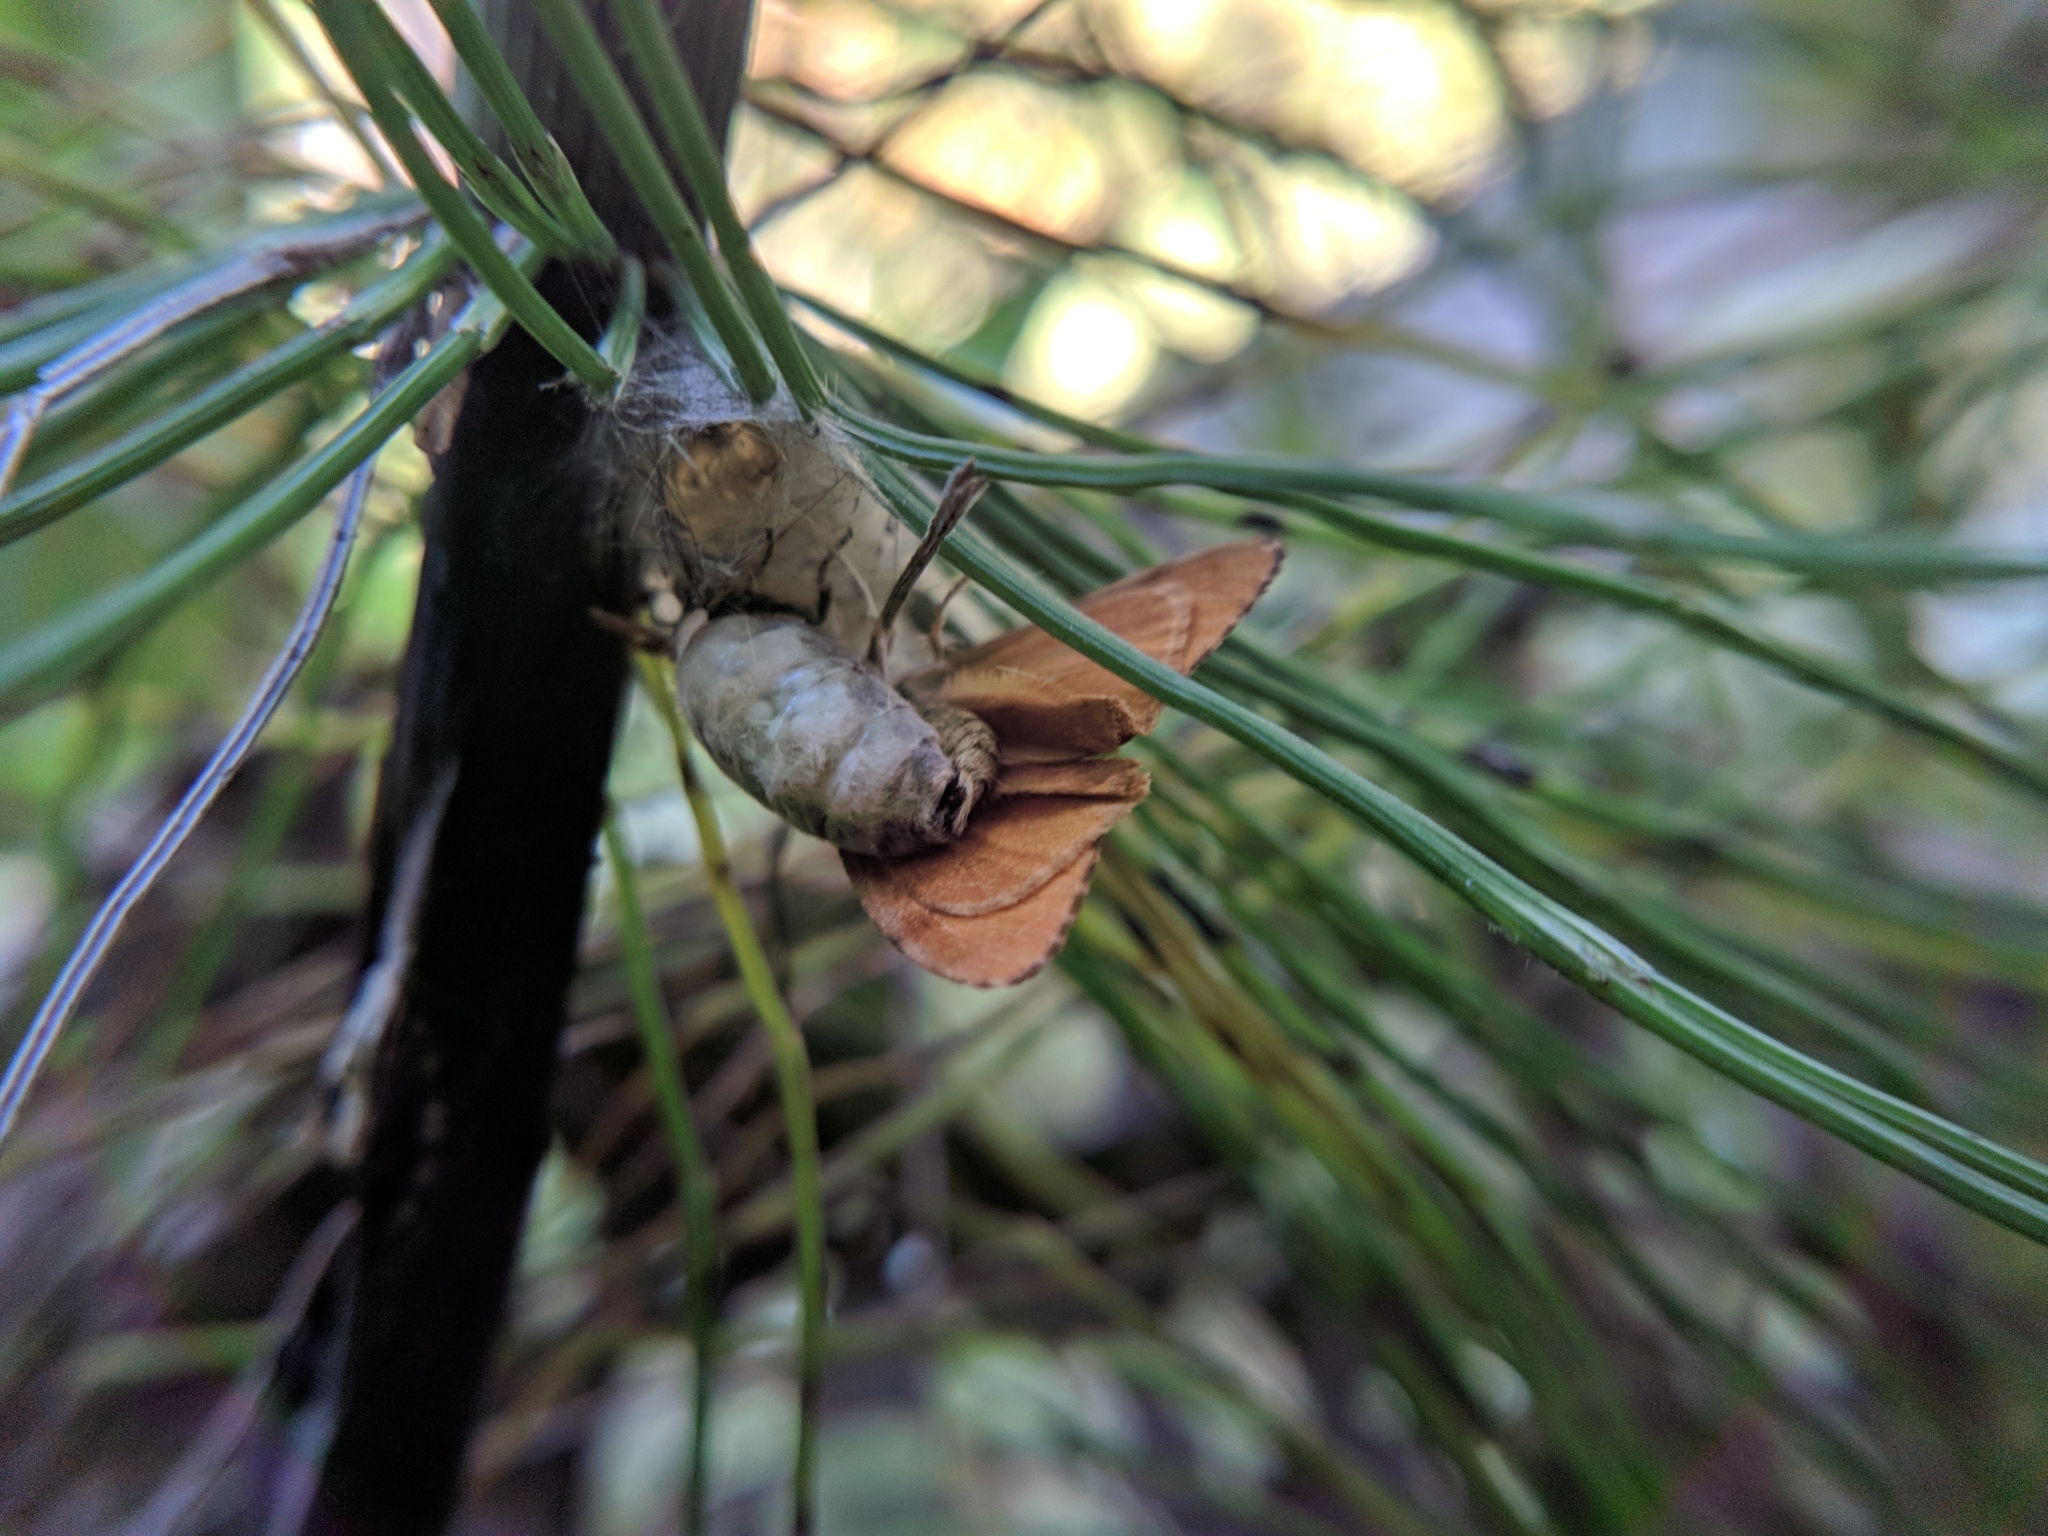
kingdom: Animalia
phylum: Arthropoda
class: Insecta
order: Lepidoptera
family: Erebidae
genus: Orgyia
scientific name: Orgyia antiqua
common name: Vapourer
